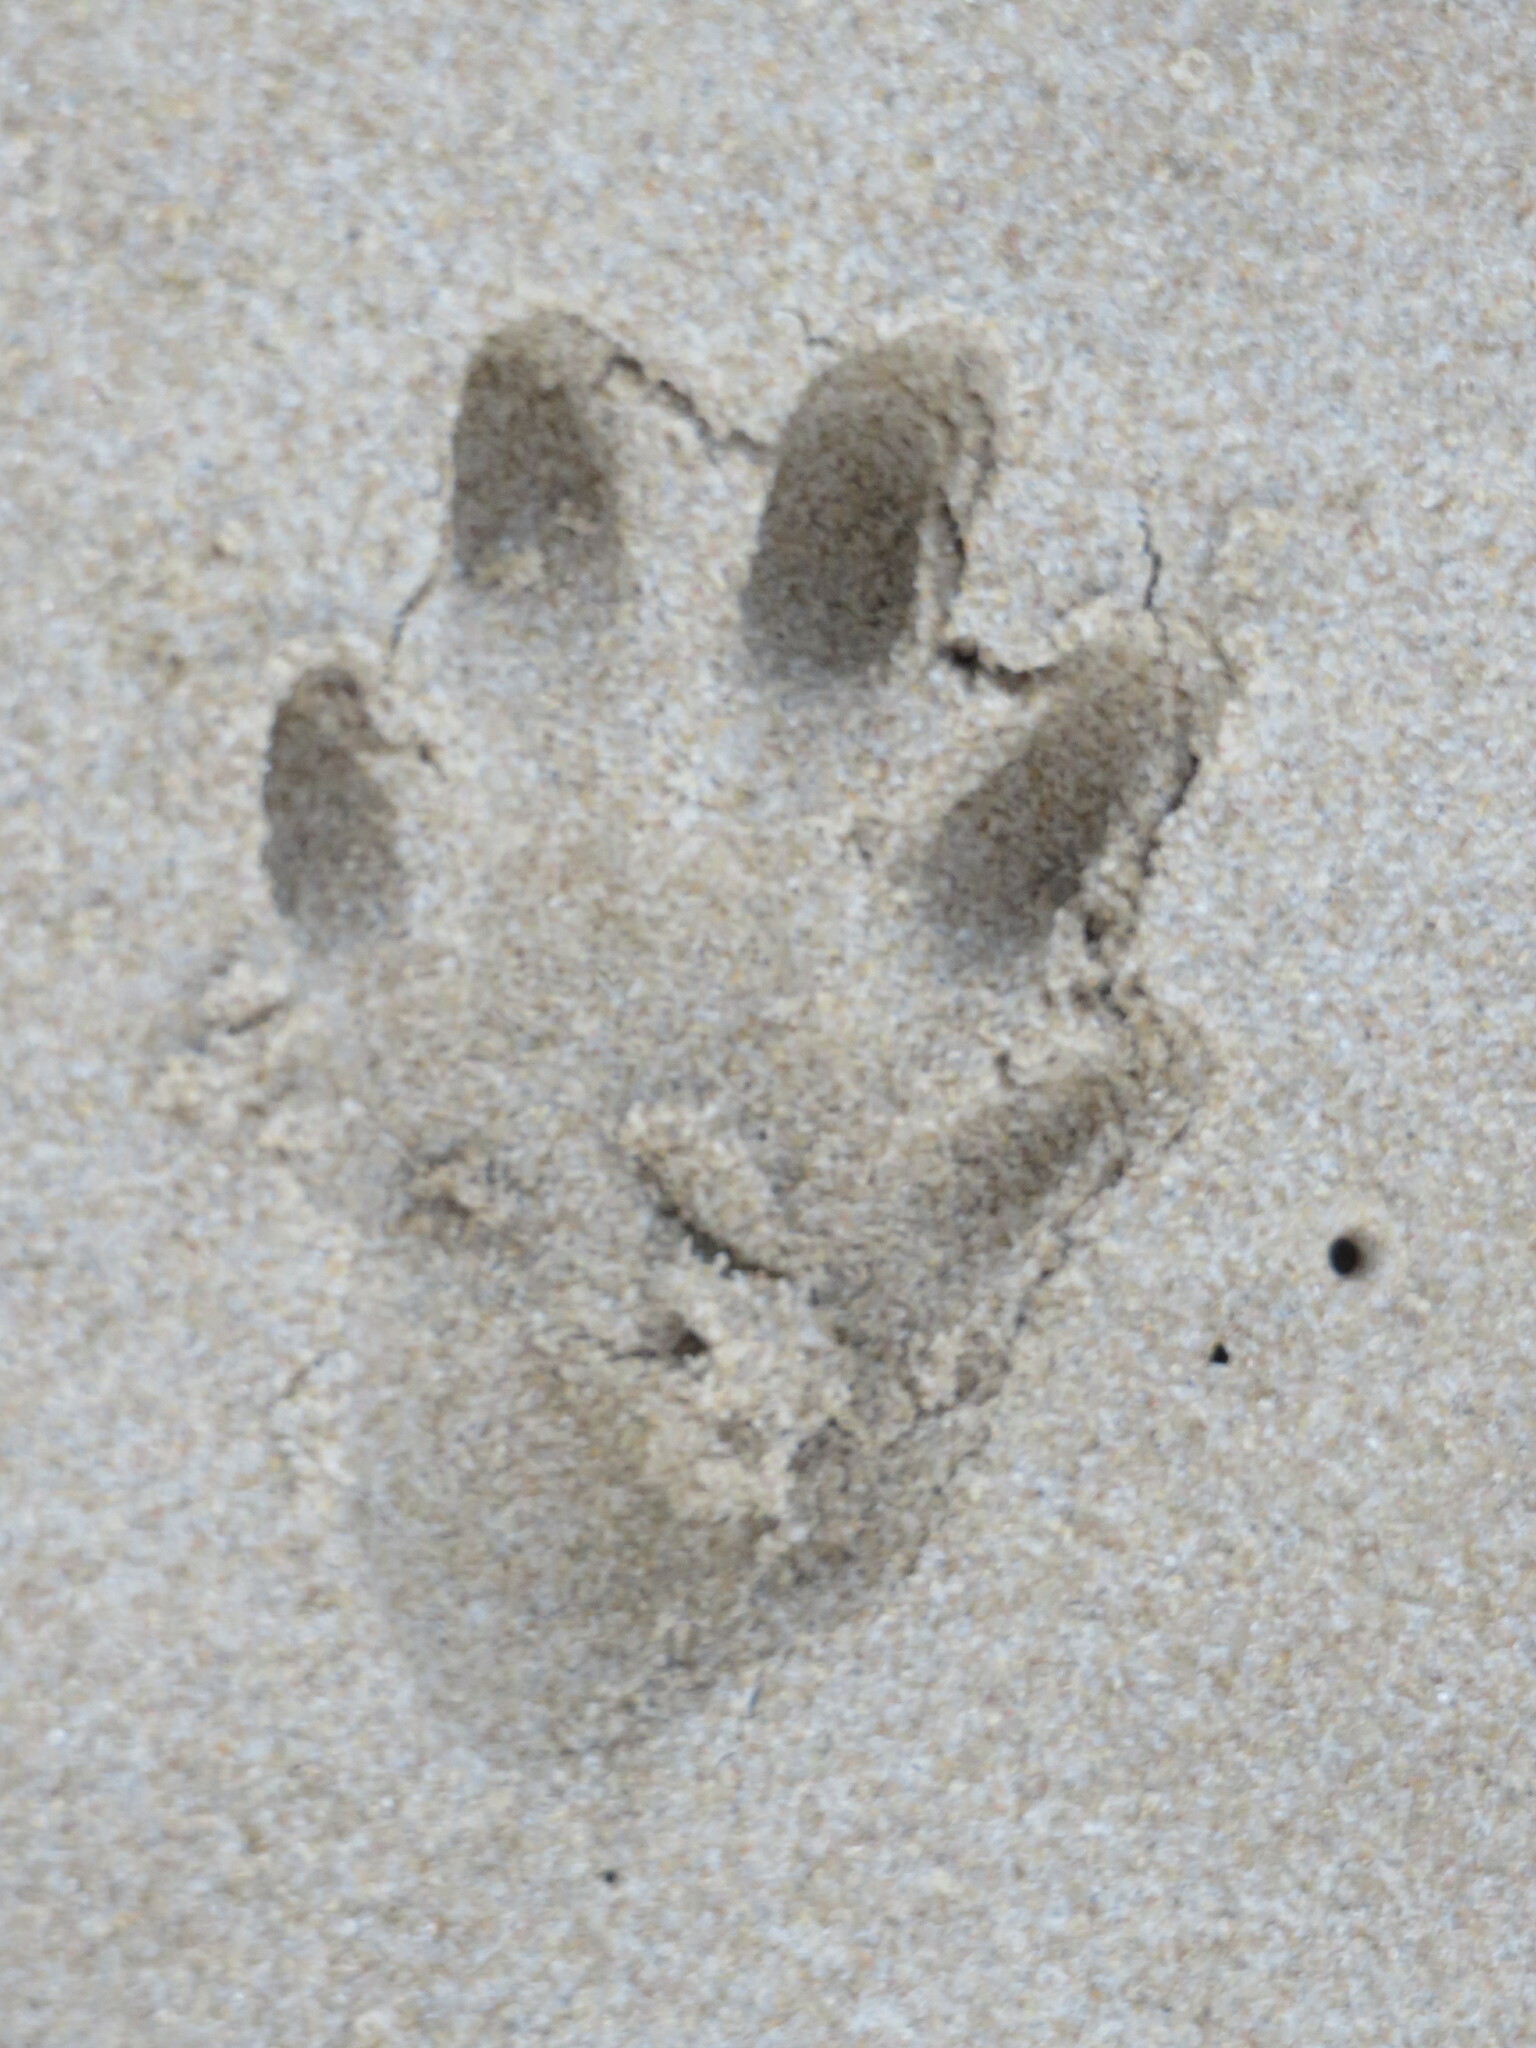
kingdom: Animalia
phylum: Chordata
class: Mammalia
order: Carnivora
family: Mustelidae
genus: Aonyx
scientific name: Aonyx capensis
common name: African clawless otter
